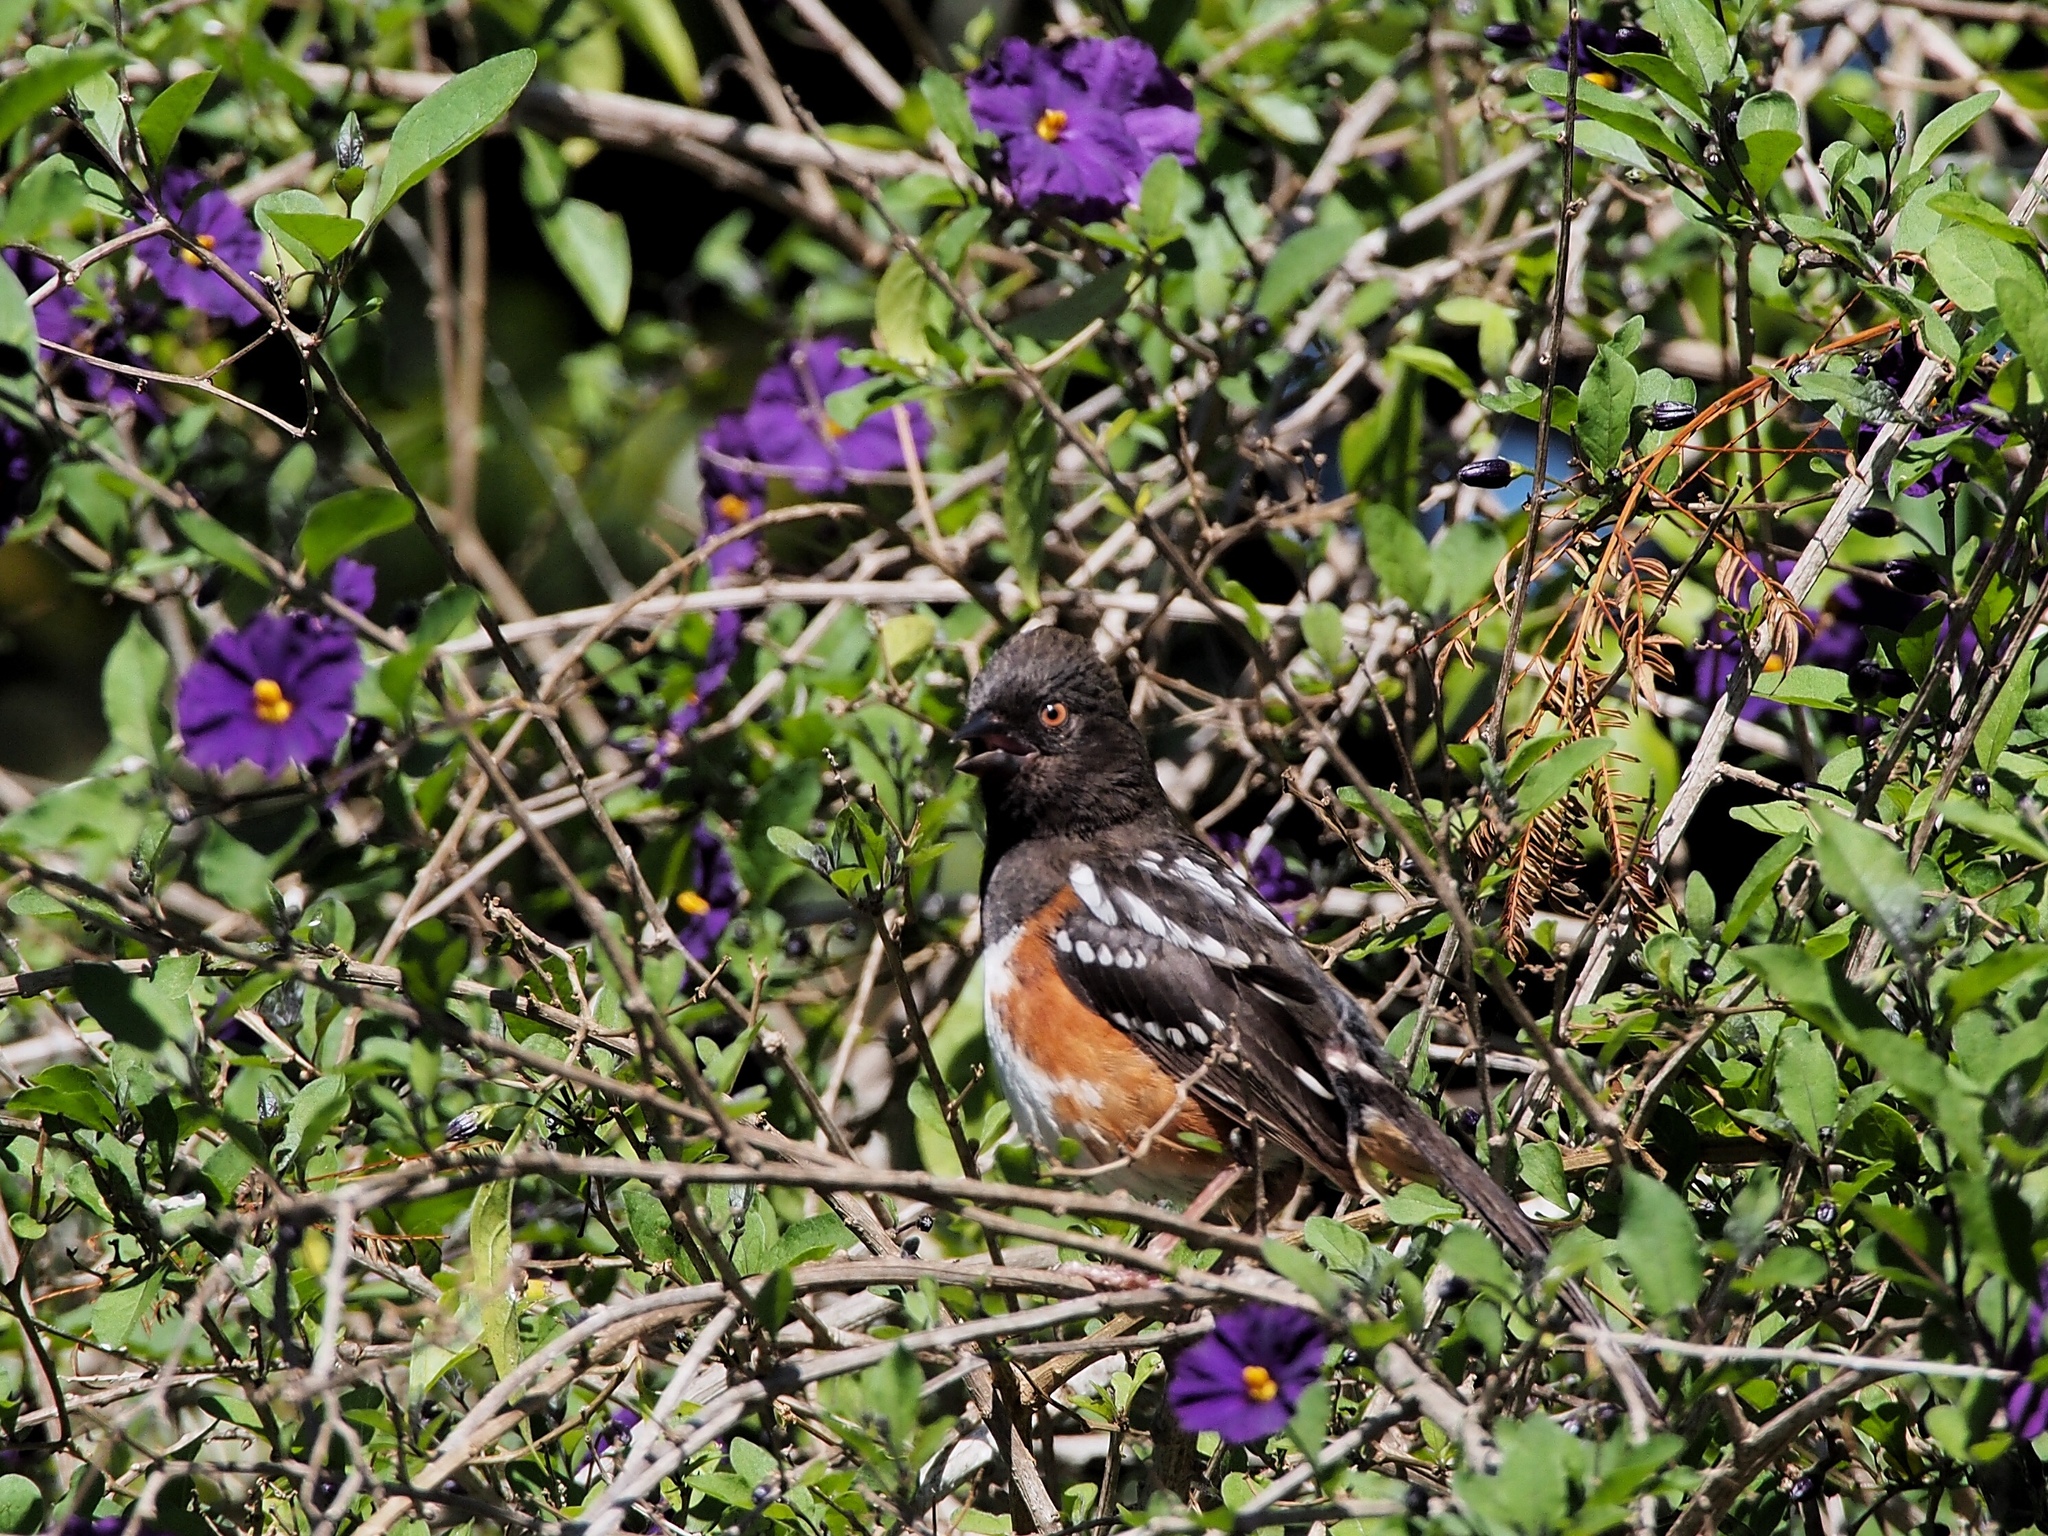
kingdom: Animalia
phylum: Chordata
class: Aves
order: Passeriformes
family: Passerellidae
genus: Pipilo
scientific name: Pipilo maculatus
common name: Spotted towhee
